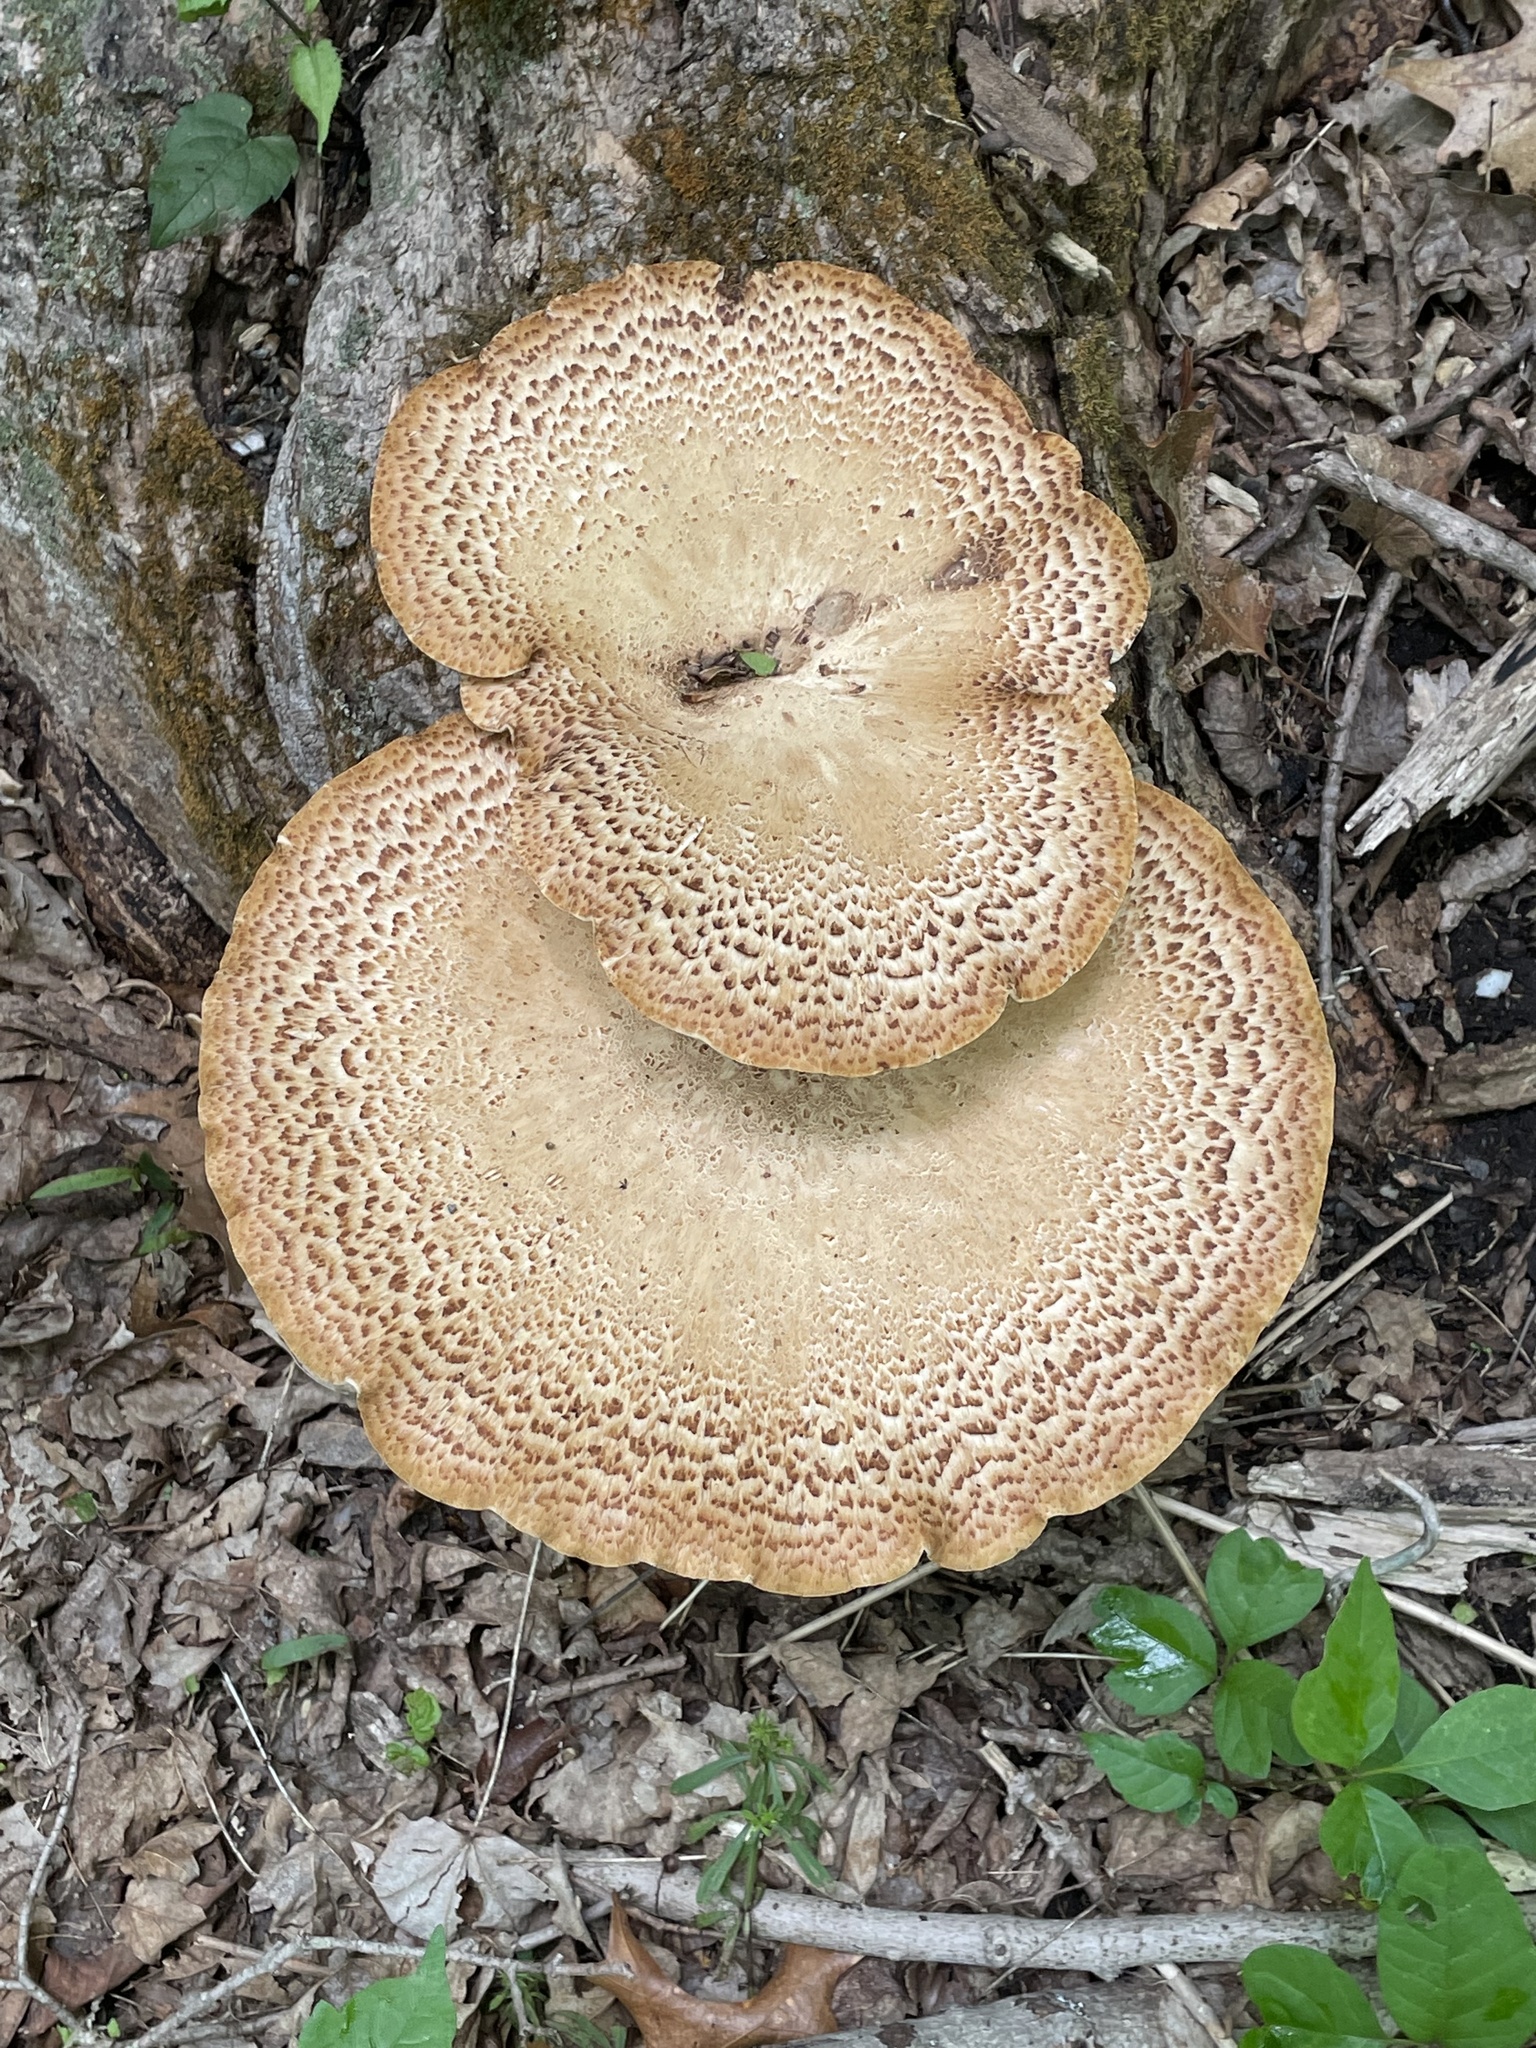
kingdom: Fungi
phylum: Basidiomycota
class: Agaricomycetes
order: Polyporales
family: Polyporaceae
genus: Cerioporus
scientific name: Cerioporus squamosus
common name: Dryad's saddle
